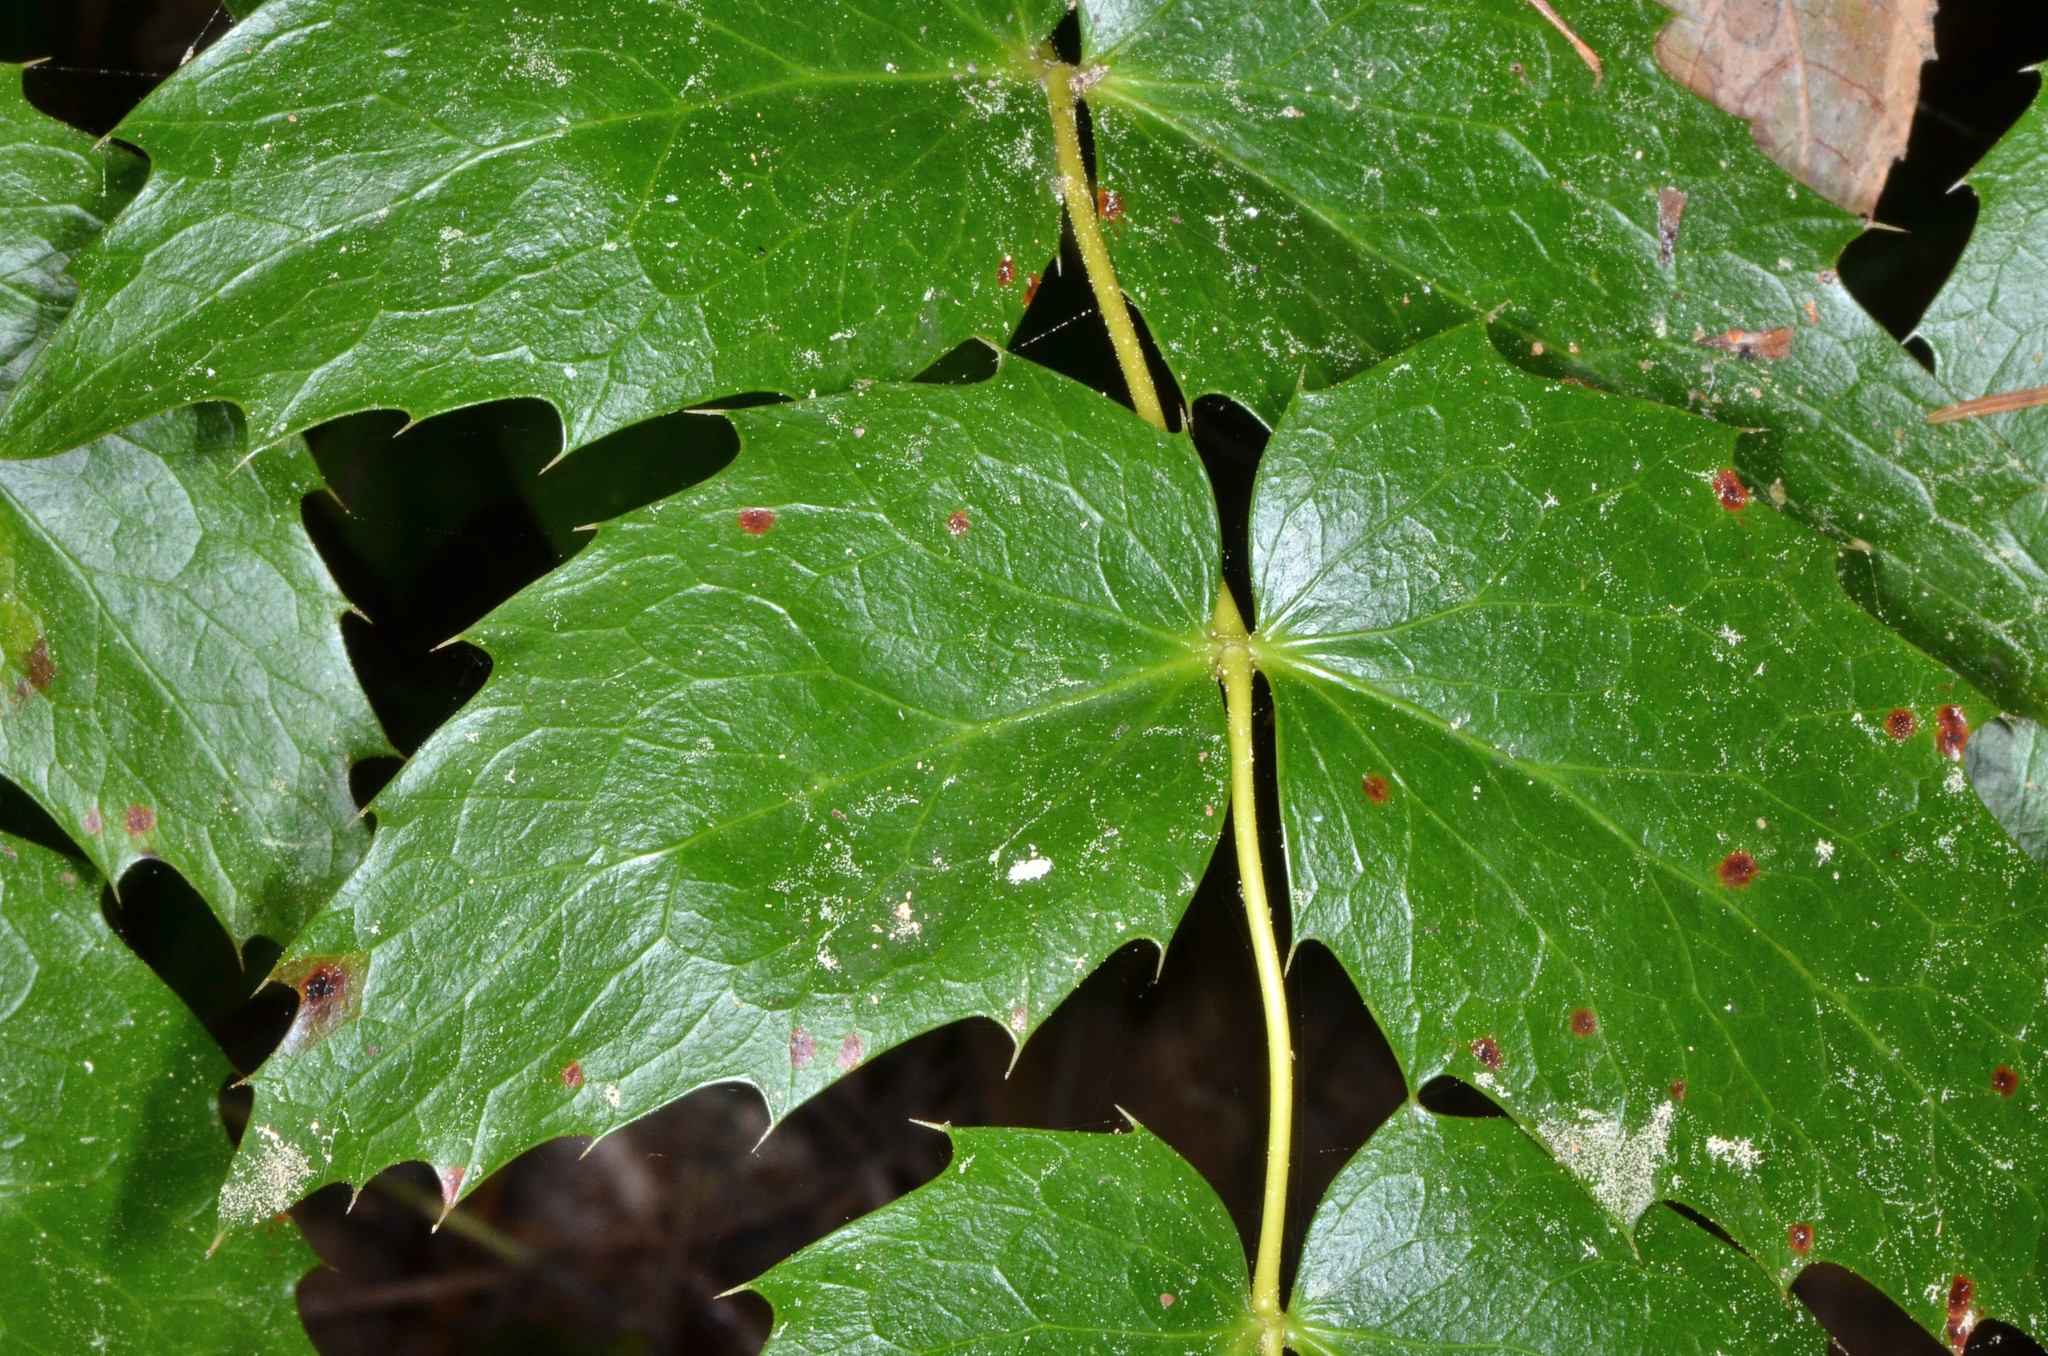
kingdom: Plantae
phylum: Tracheophyta
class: Magnoliopsida
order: Ranunculales
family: Berberidaceae
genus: Mahonia
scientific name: Mahonia nervosa
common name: Cascade oregon-grape
